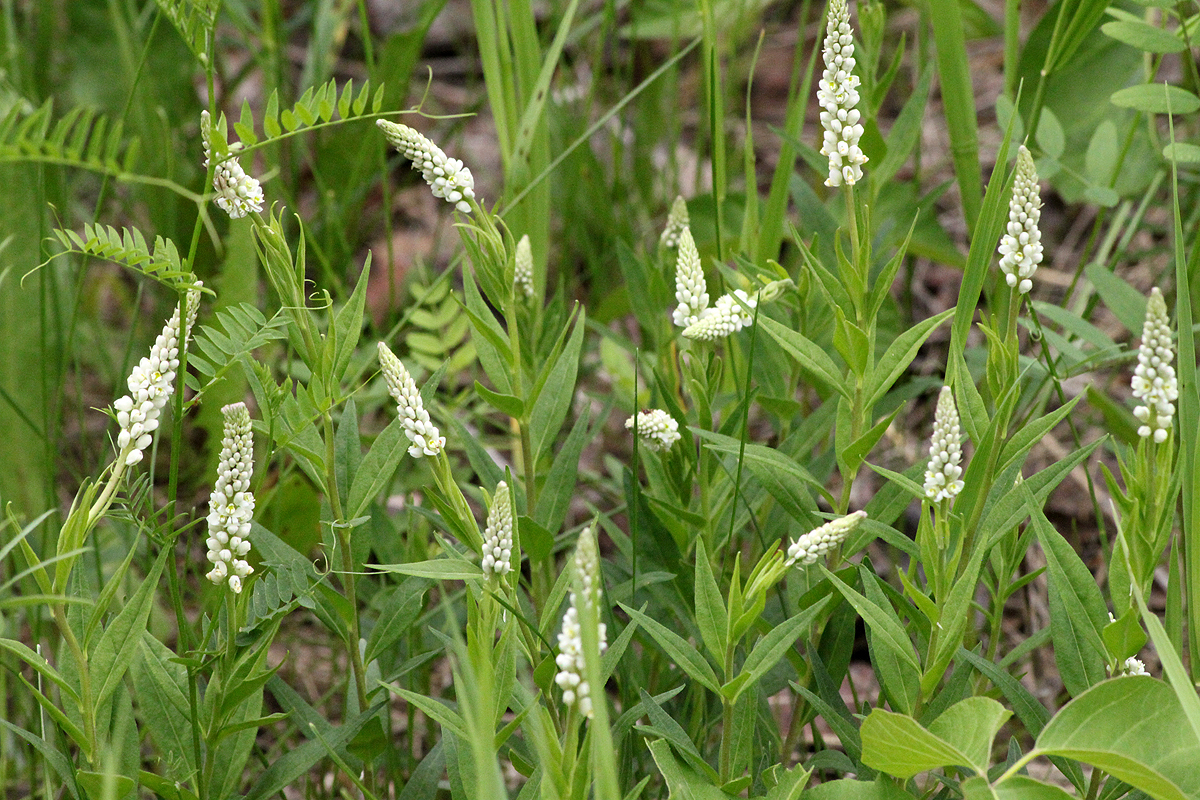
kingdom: Plantae
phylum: Tracheophyta
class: Magnoliopsida
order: Fabales
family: Polygalaceae
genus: Polygala
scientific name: Polygala senega
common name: Seneca snakeroot
